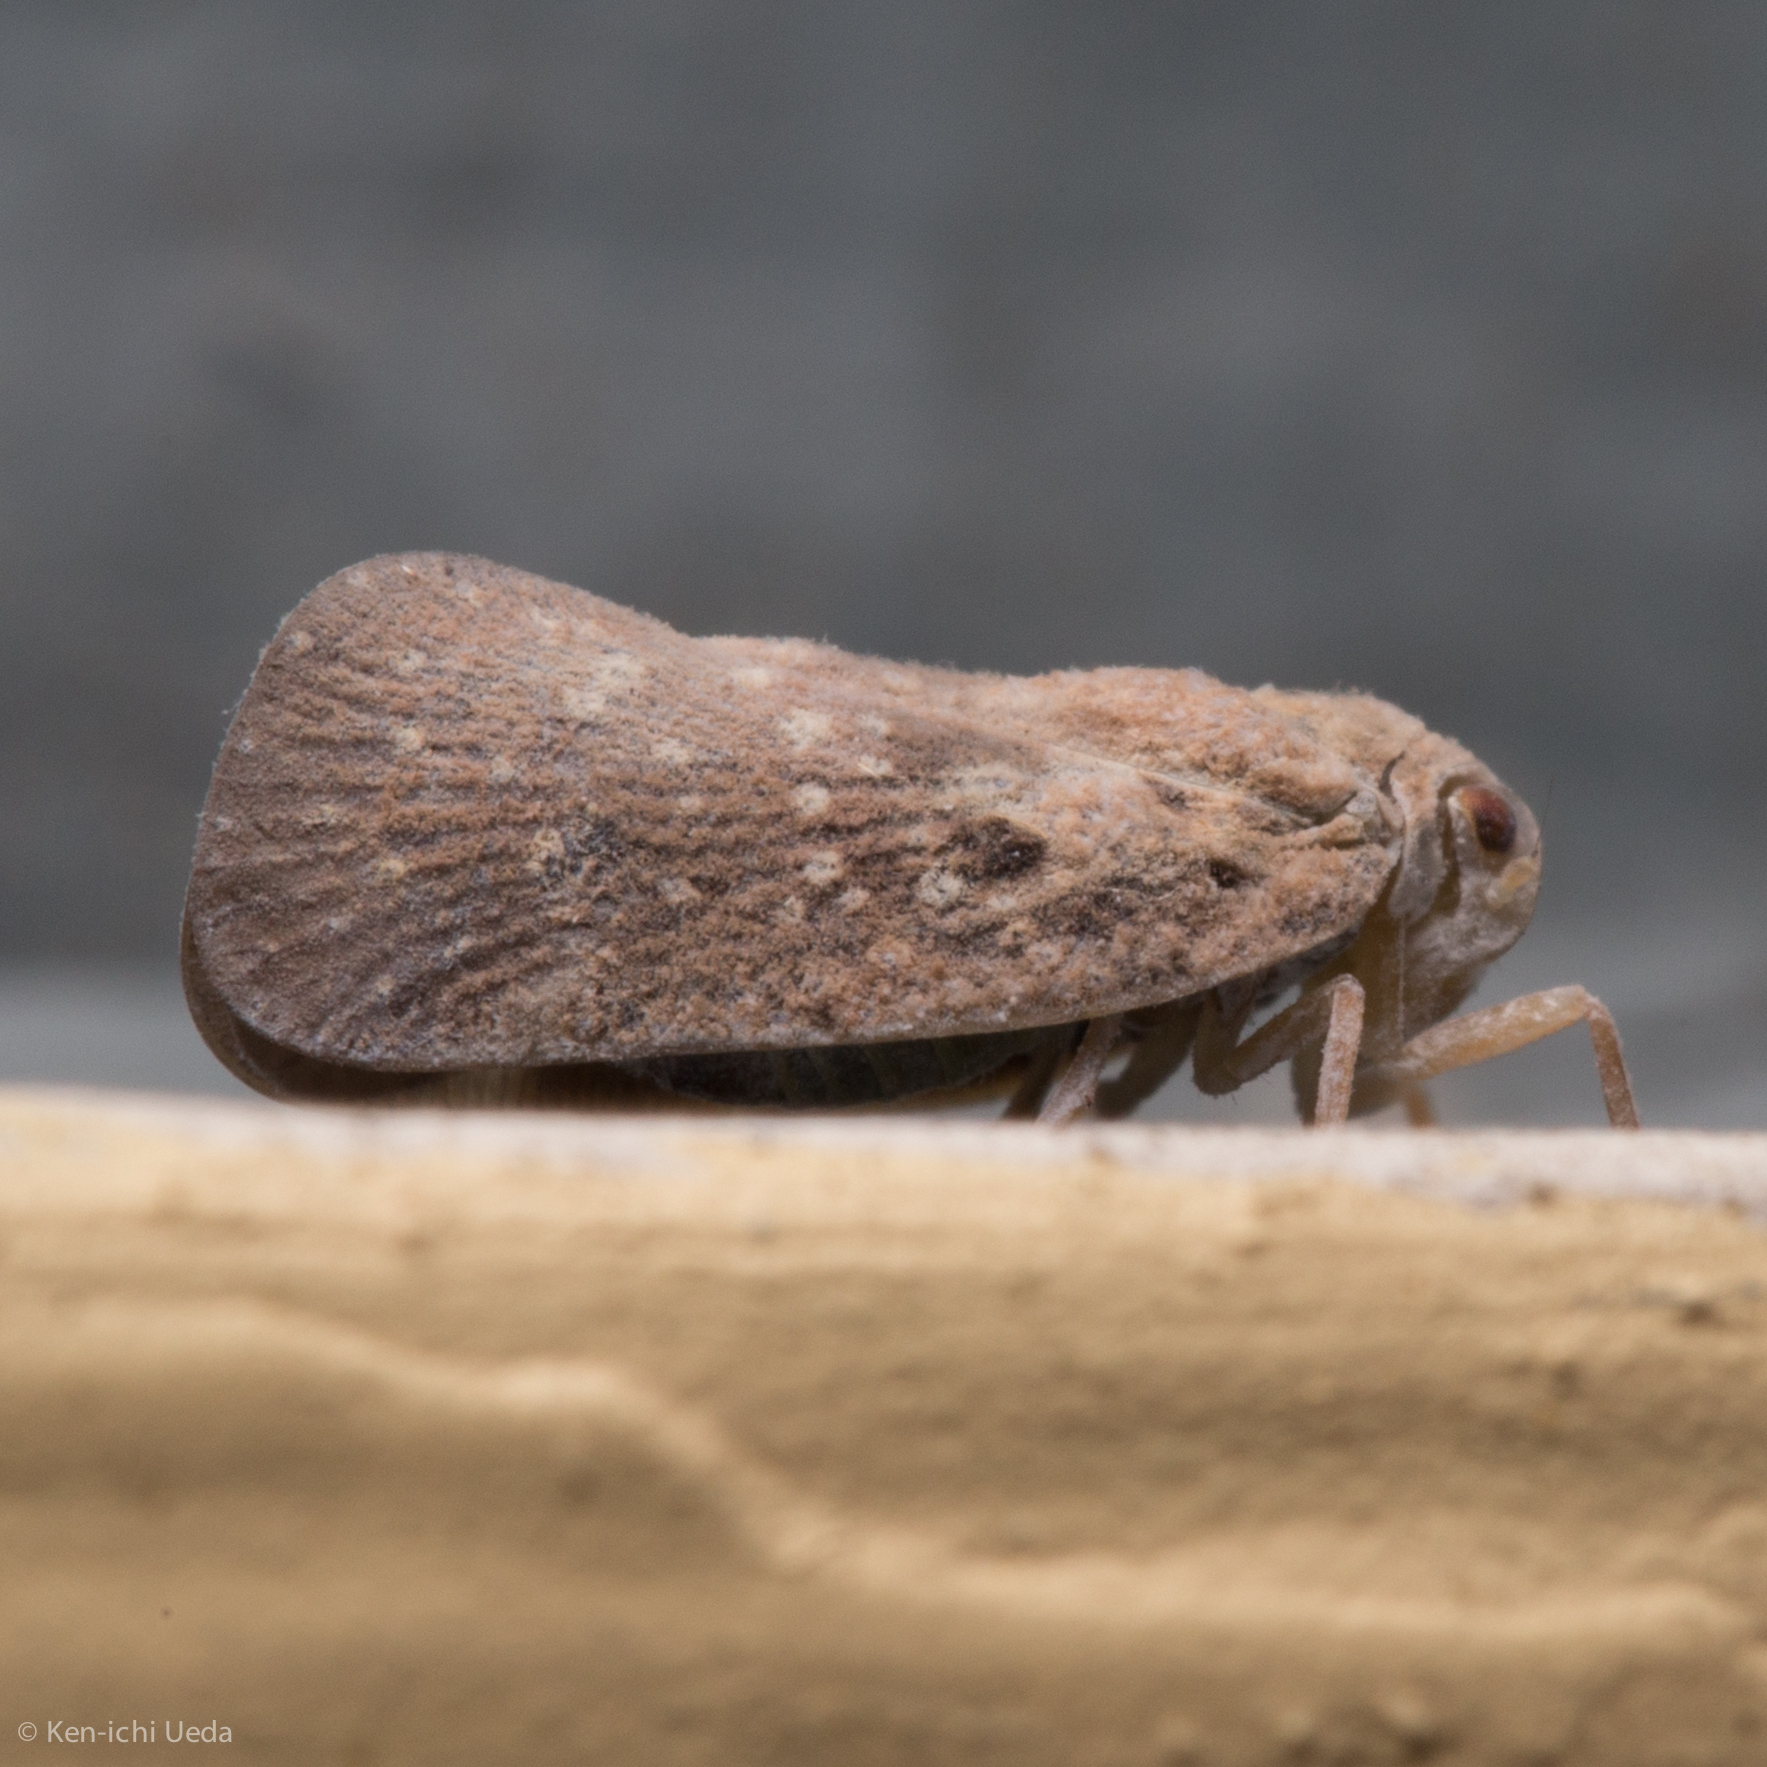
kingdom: Animalia
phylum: Arthropoda
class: Insecta
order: Hemiptera
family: Flatidae
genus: Metcalfa
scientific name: Metcalfa pruinosa
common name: Citrus flatid planthopper
